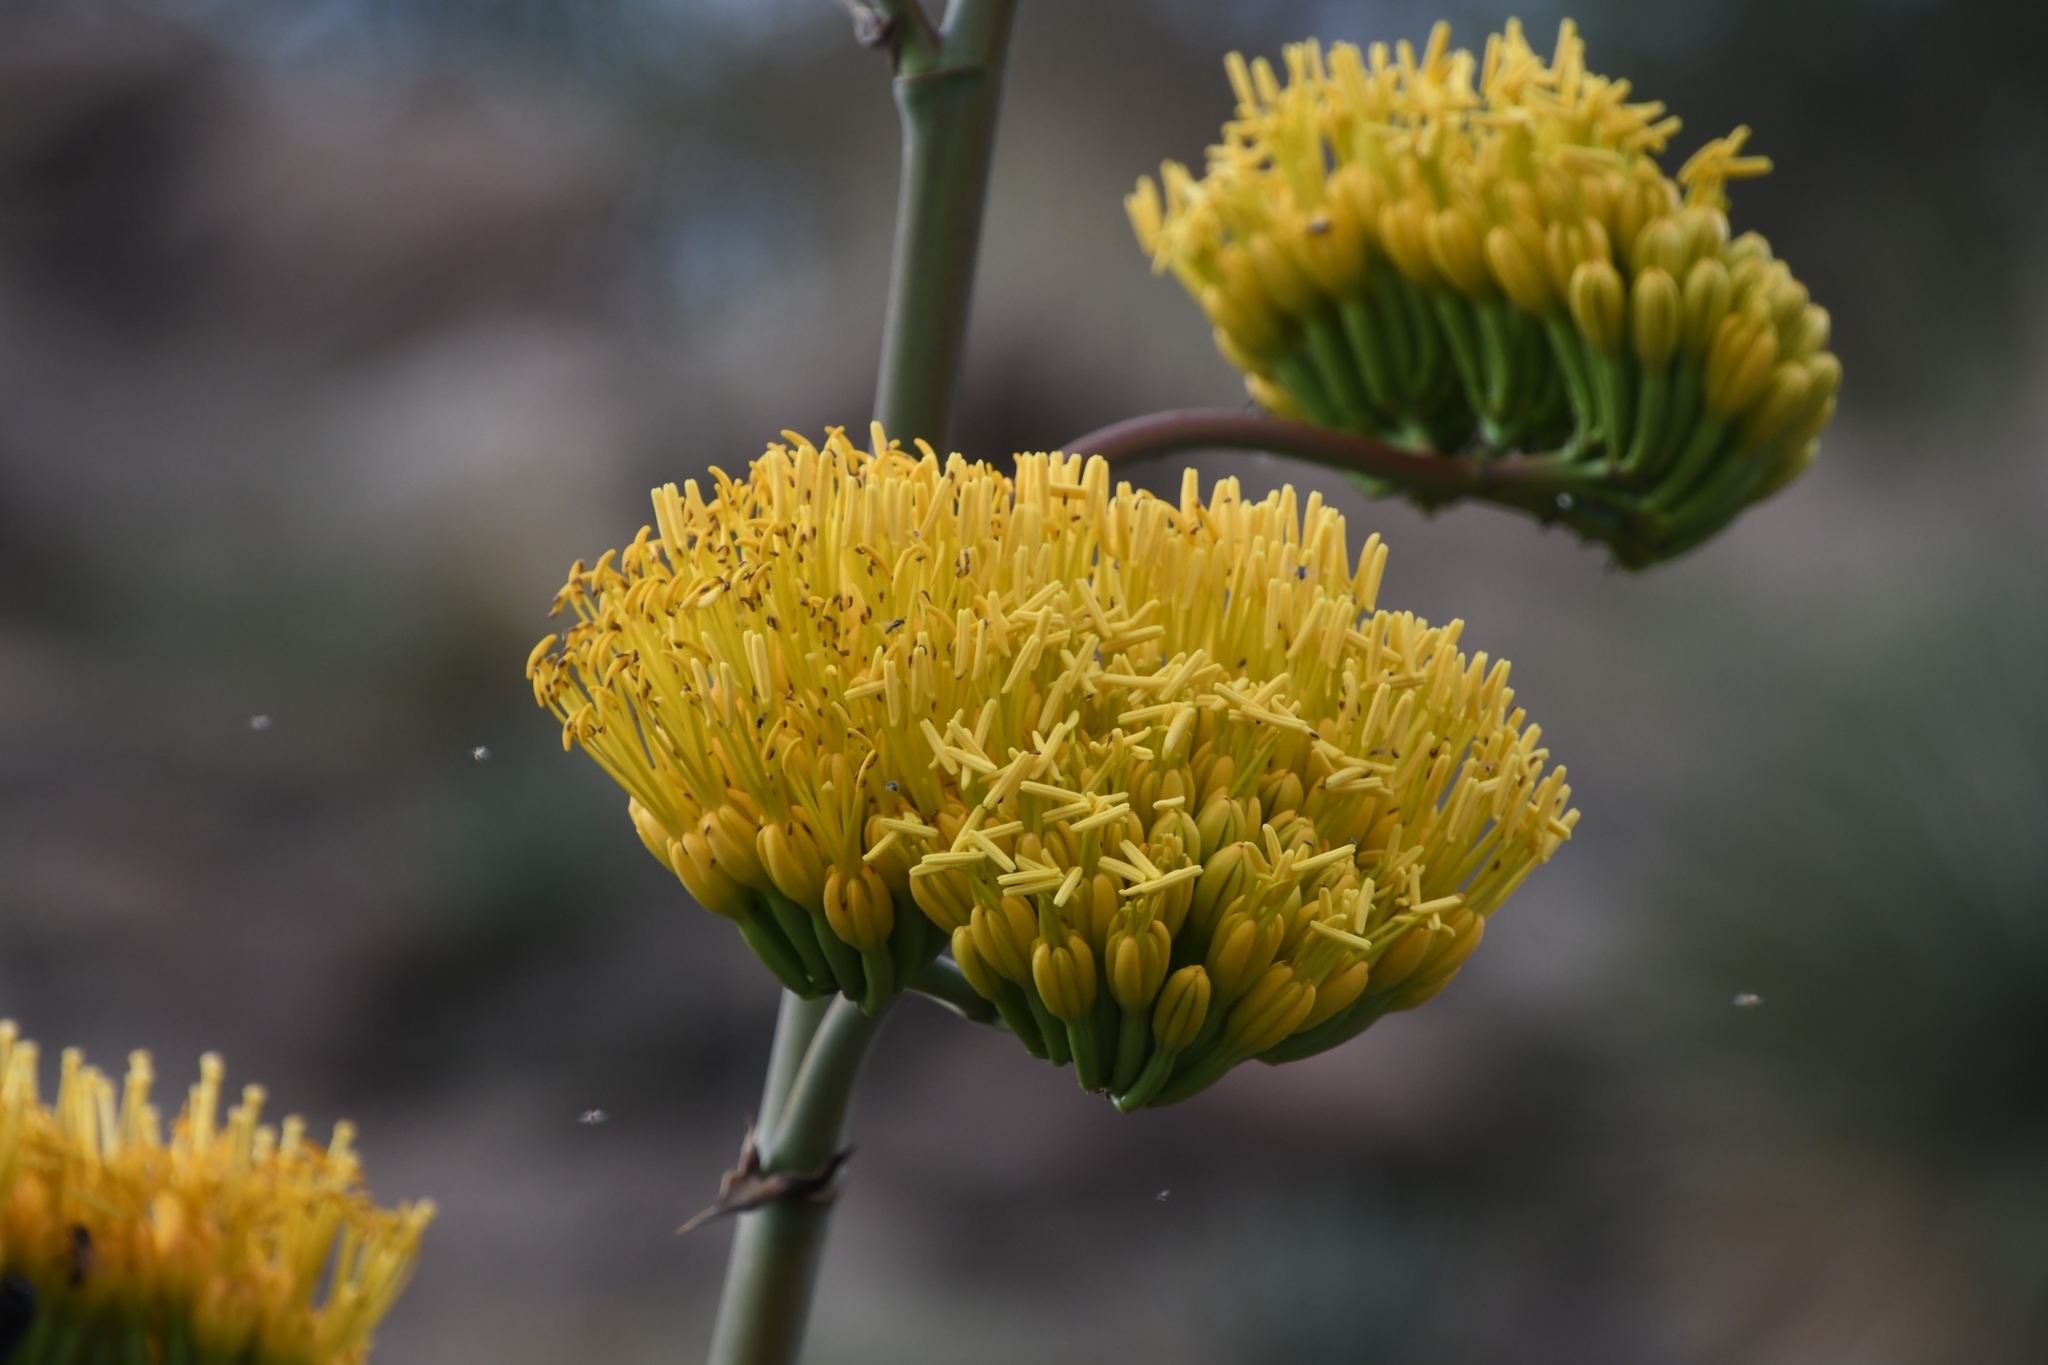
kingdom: Plantae
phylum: Tracheophyta
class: Liliopsida
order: Asparagales
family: Asparagaceae
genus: Agave
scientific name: Agave chrysantha
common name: Golden-flowered agave
